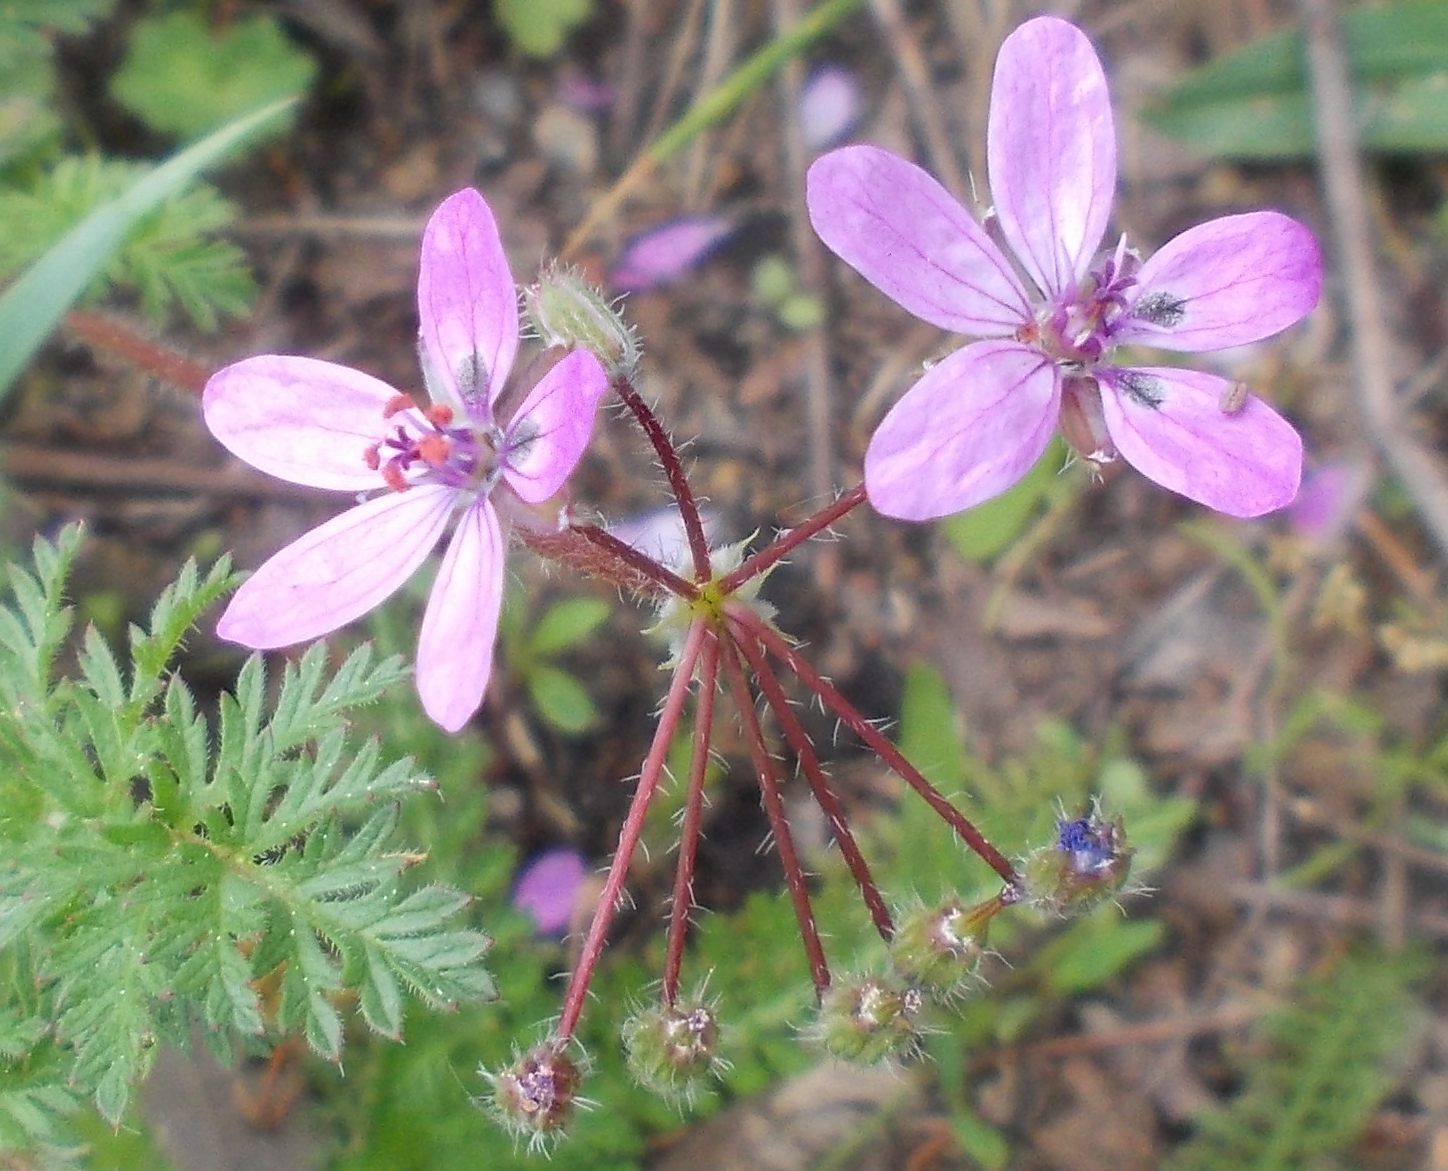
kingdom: Plantae
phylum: Tracheophyta
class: Magnoliopsida
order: Geraniales
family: Geraniaceae
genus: Erodium
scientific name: Erodium cicutarium
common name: Common stork's-bill
